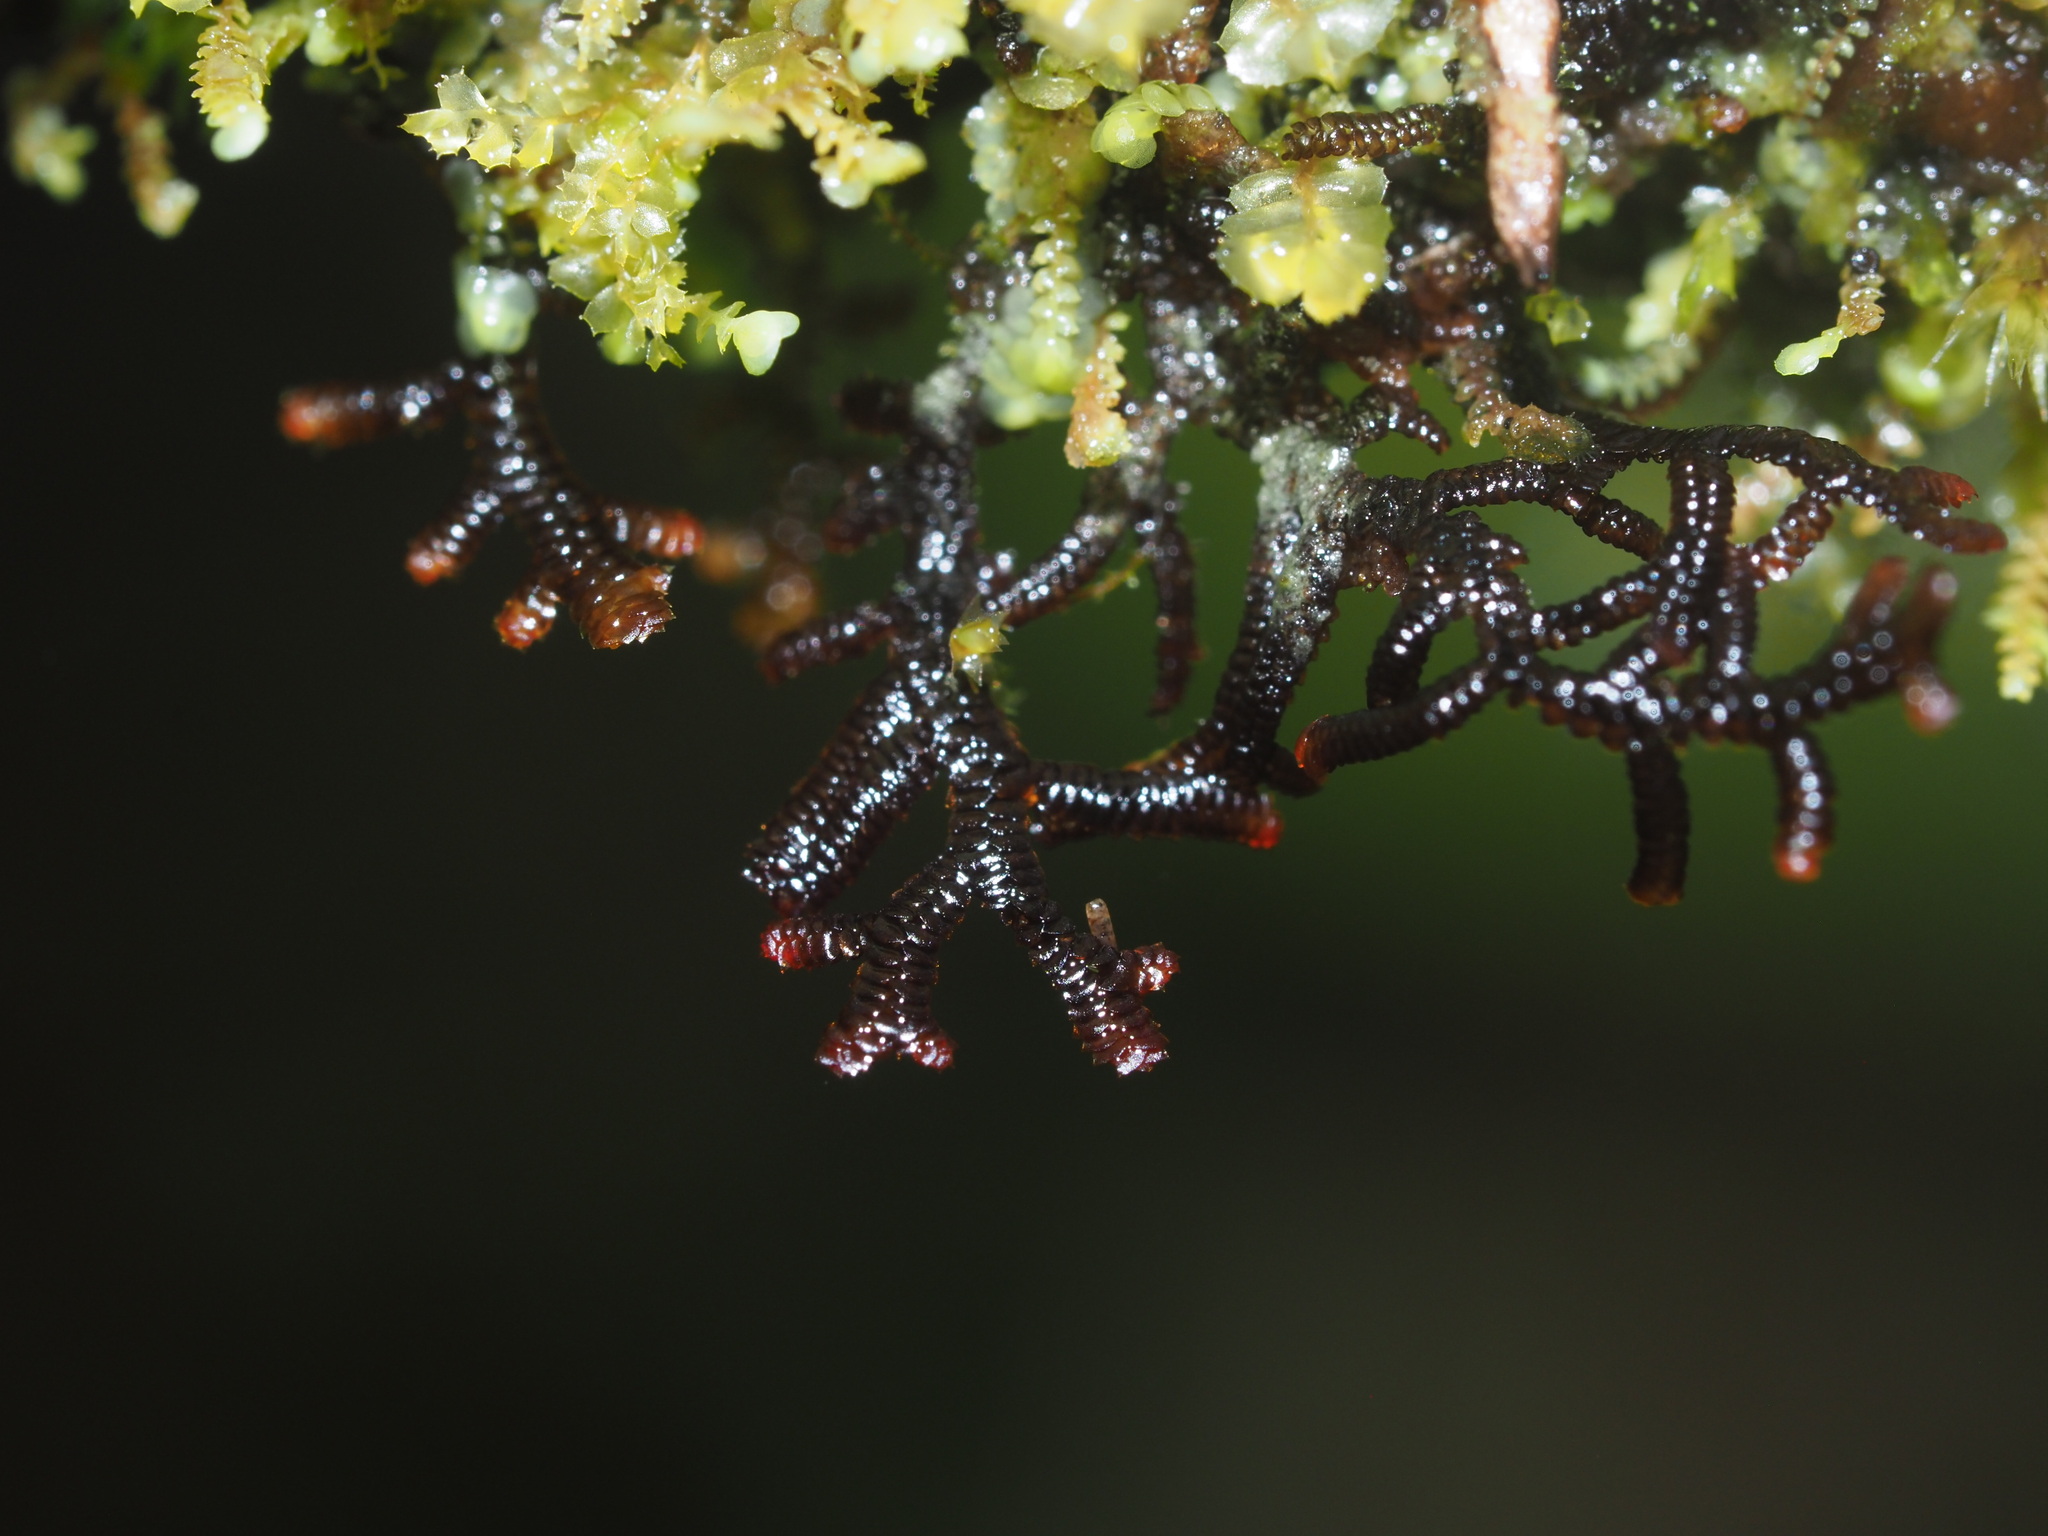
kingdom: Plantae
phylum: Marchantiophyta
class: Jungermanniopsida
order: Jungermanniales
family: Plagiochilaceae
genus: Plagiochila
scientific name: Plagiochila conduplicata
